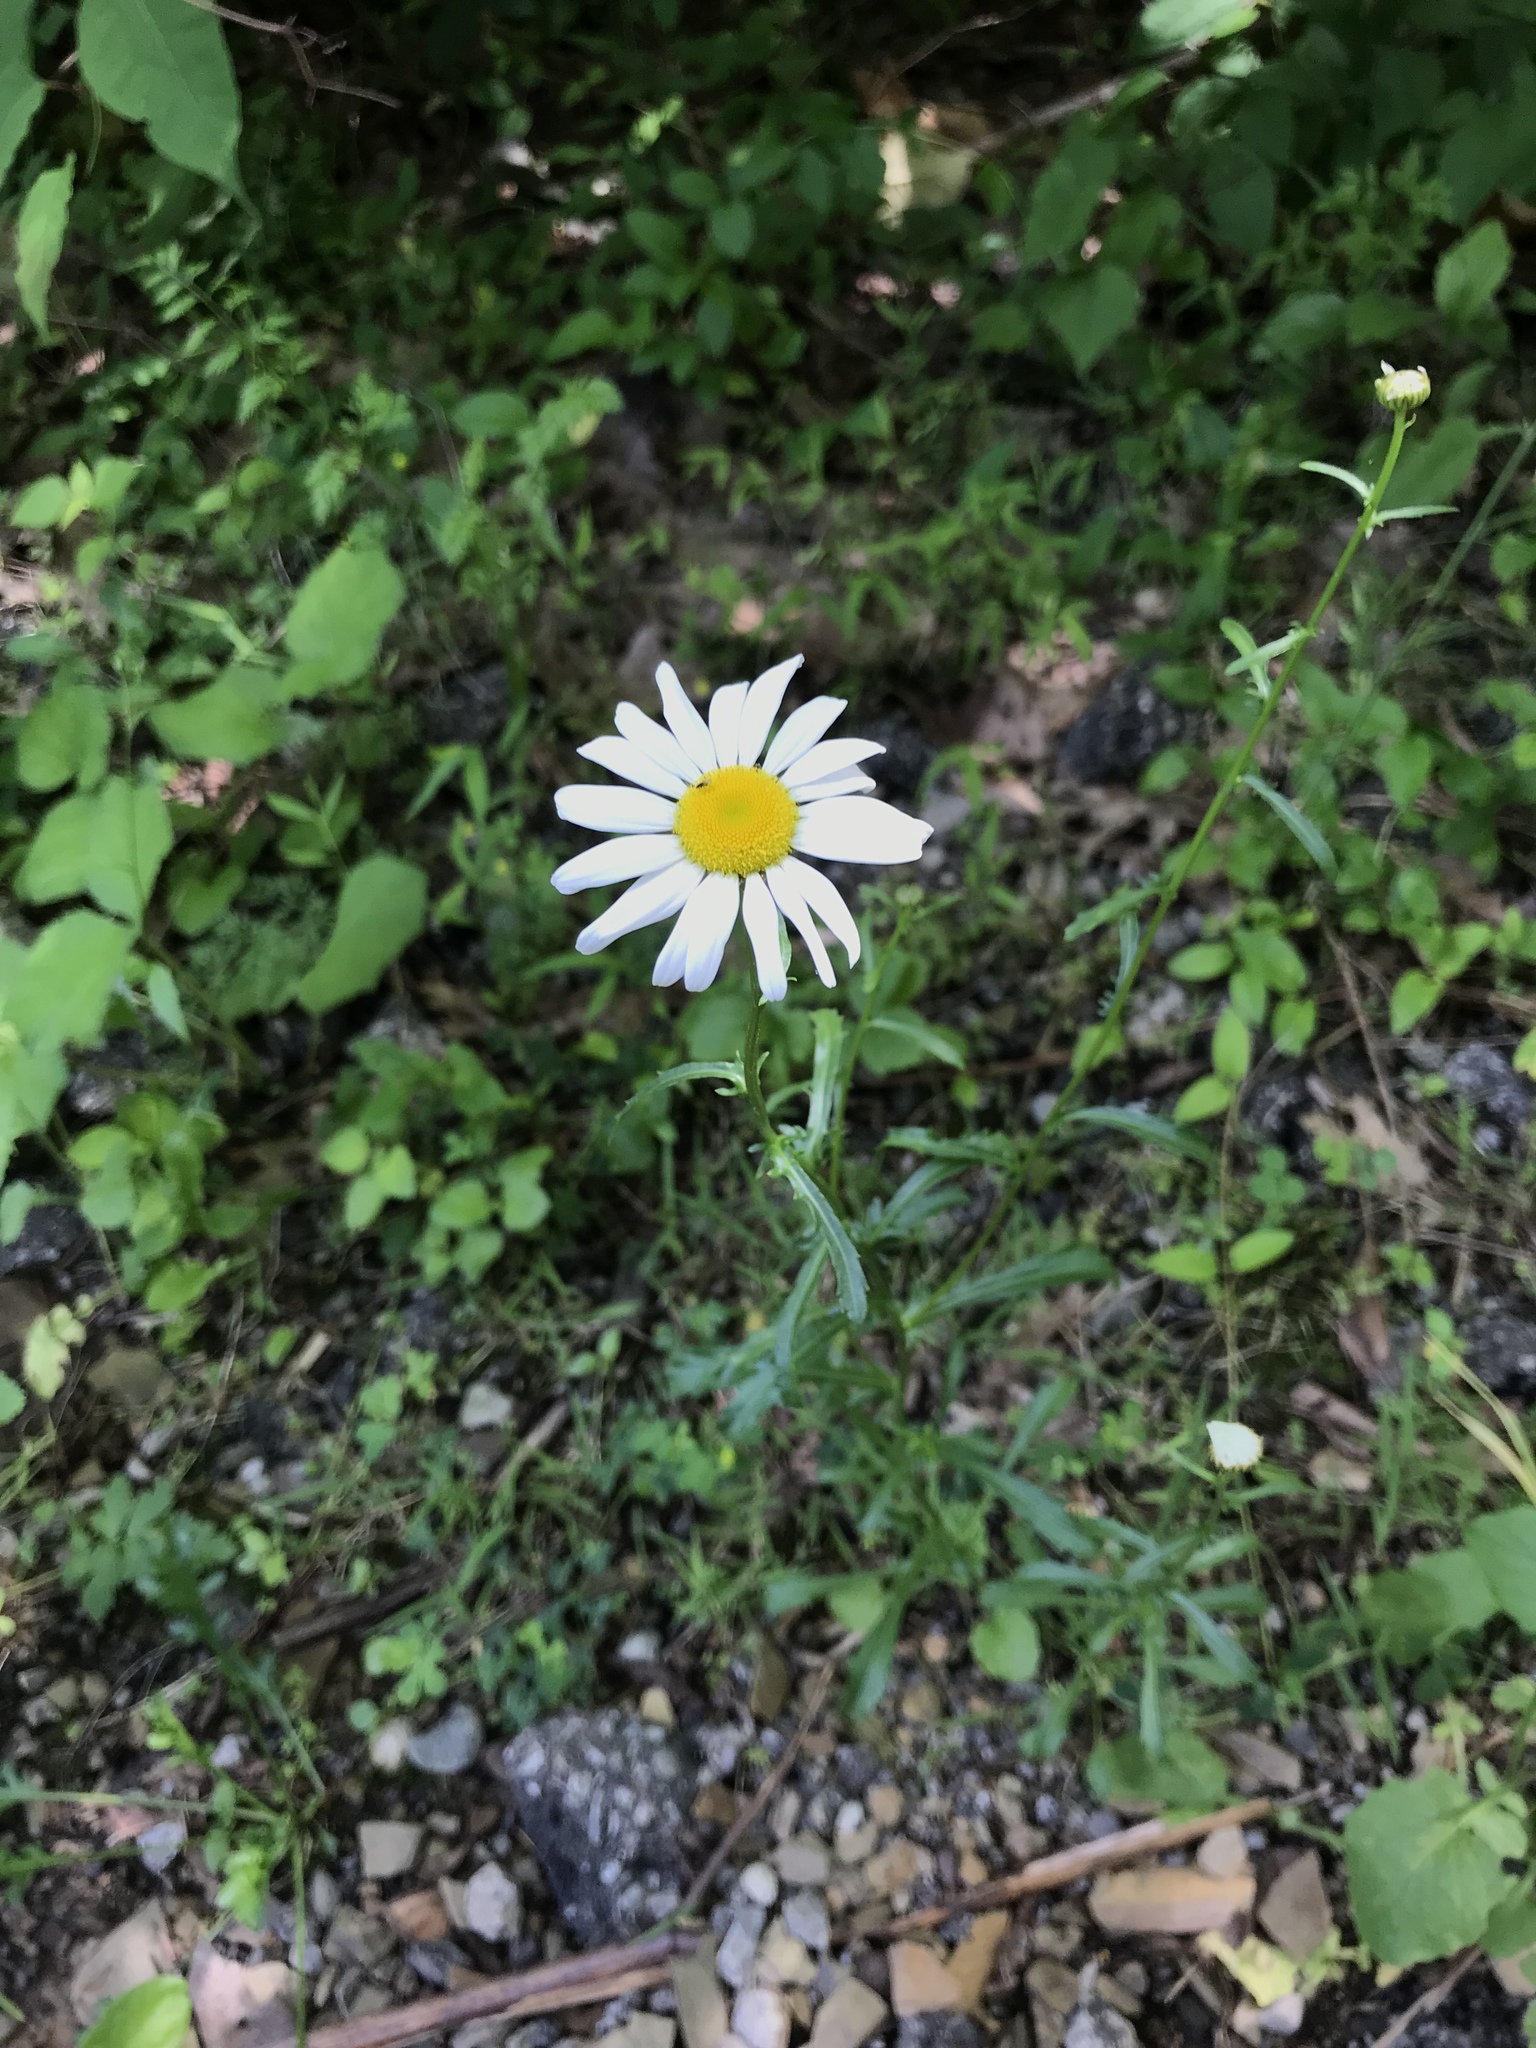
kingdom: Plantae
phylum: Tracheophyta
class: Magnoliopsida
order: Asterales
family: Asteraceae
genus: Leucanthemum
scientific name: Leucanthemum vulgare
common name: Oxeye daisy
